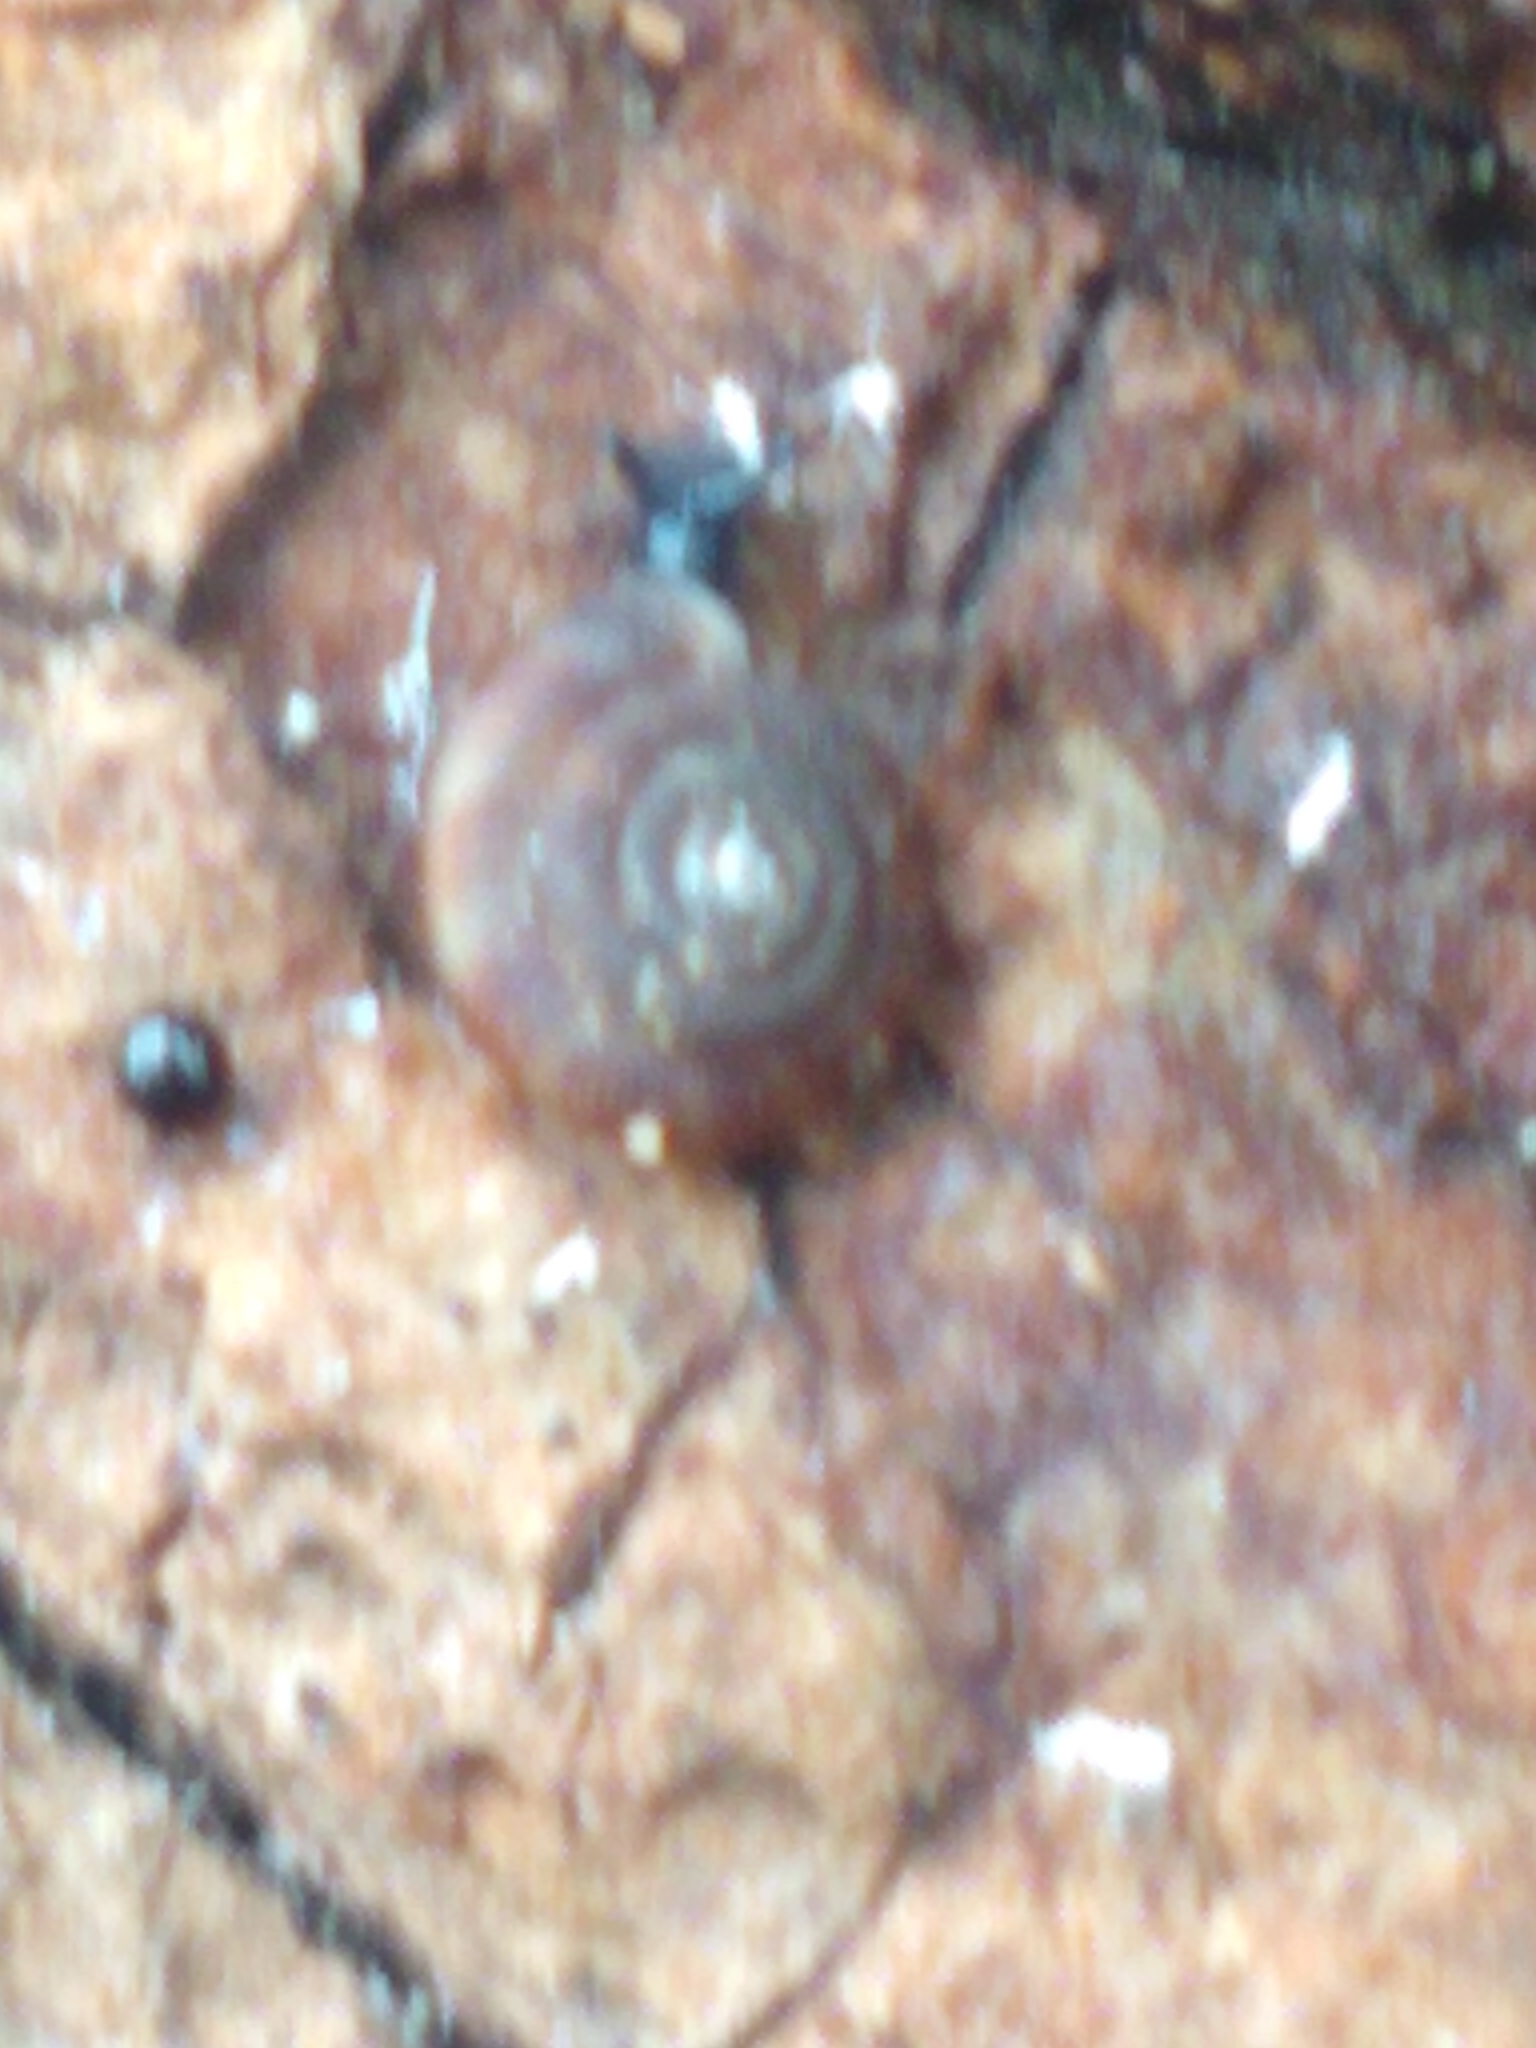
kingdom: Animalia
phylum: Mollusca
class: Gastropoda
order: Stylommatophora
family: Discidae
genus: Discus
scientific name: Discus rotundatus
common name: Rounded snail
